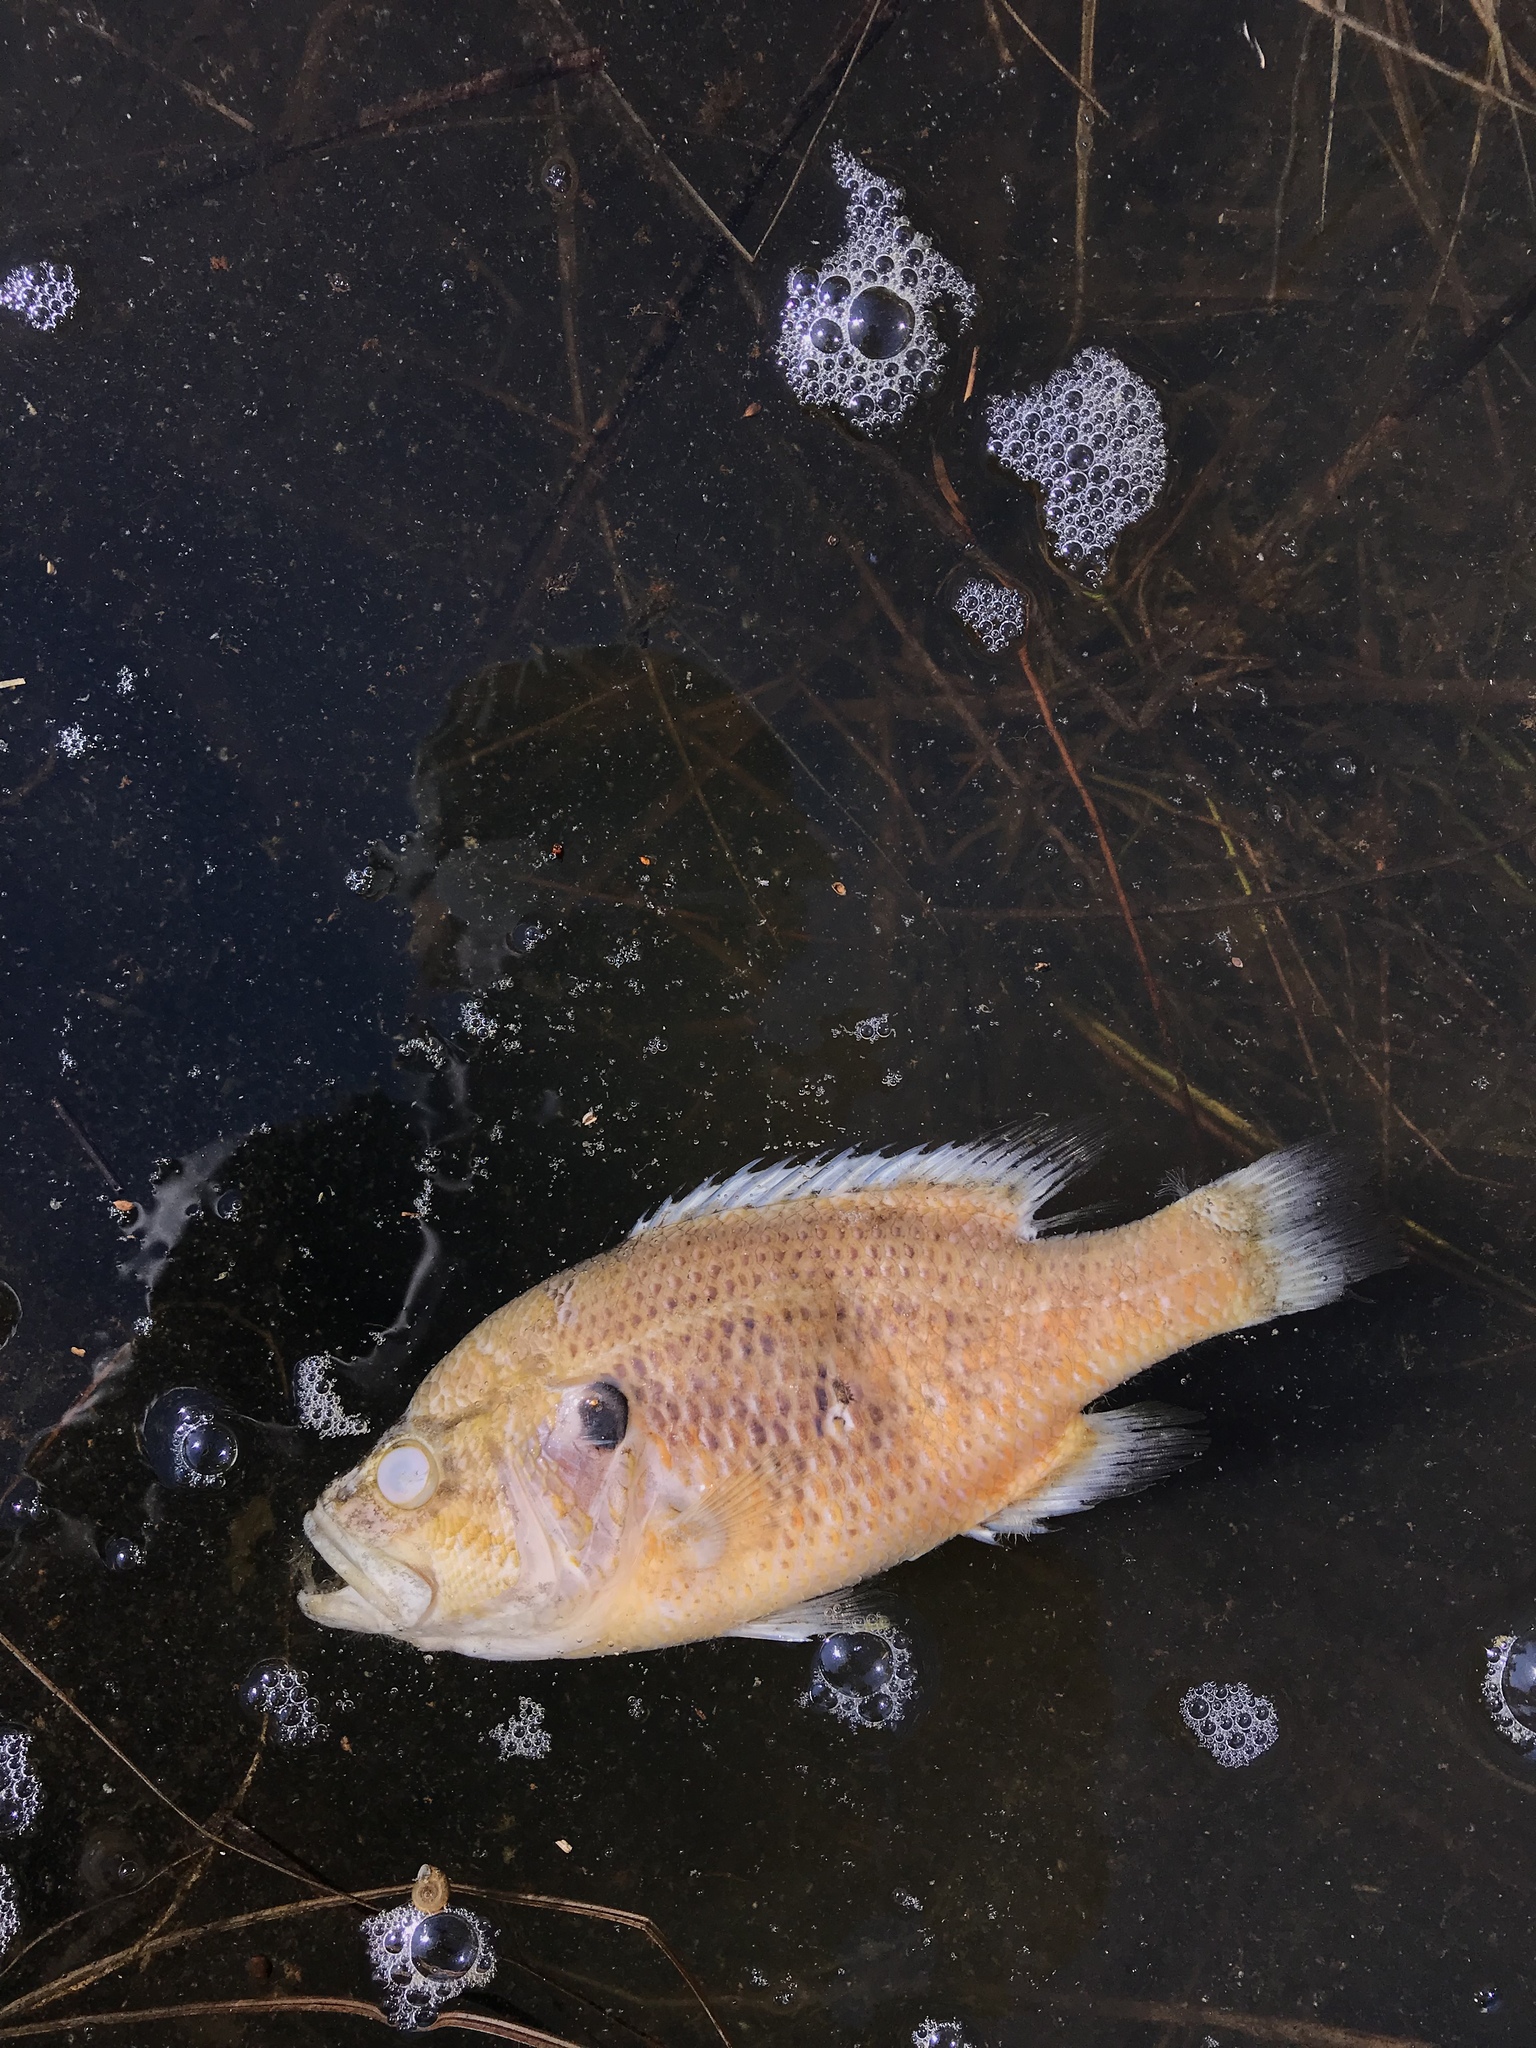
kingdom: Animalia
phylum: Chordata
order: Perciformes
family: Centrarchidae
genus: Lepomis
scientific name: Lepomis gulosus
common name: Warmouth
